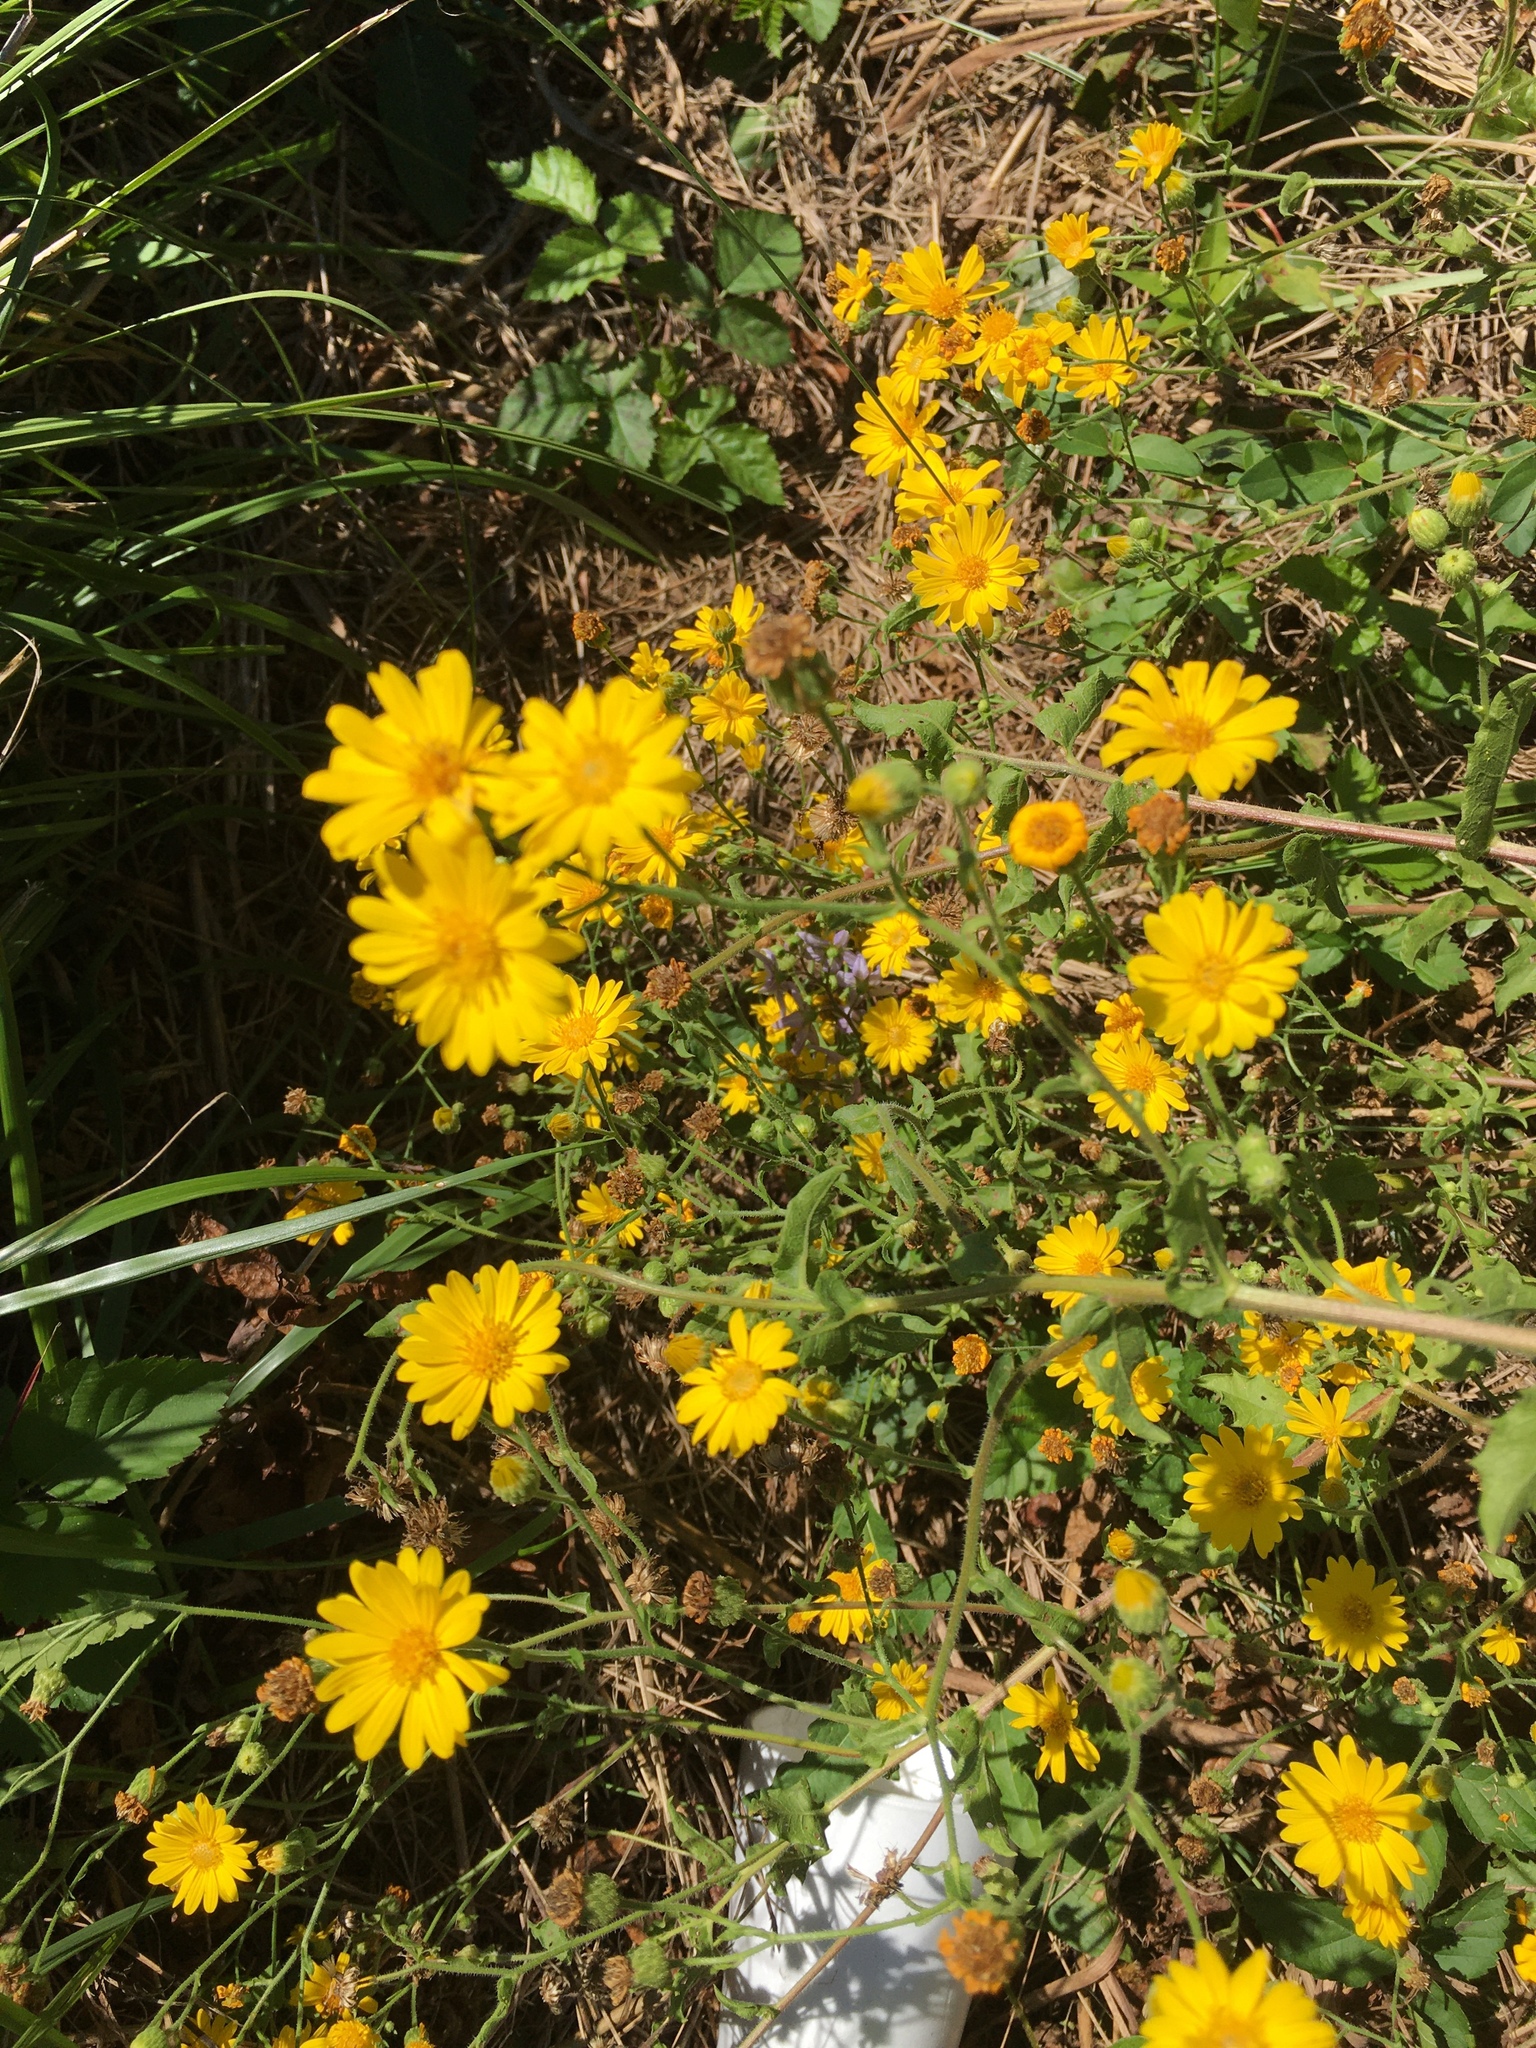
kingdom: Plantae
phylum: Tracheophyta
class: Magnoliopsida
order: Asterales
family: Asteraceae
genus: Heterotheca
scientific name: Heterotheca subaxillaris
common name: Camphorweed
